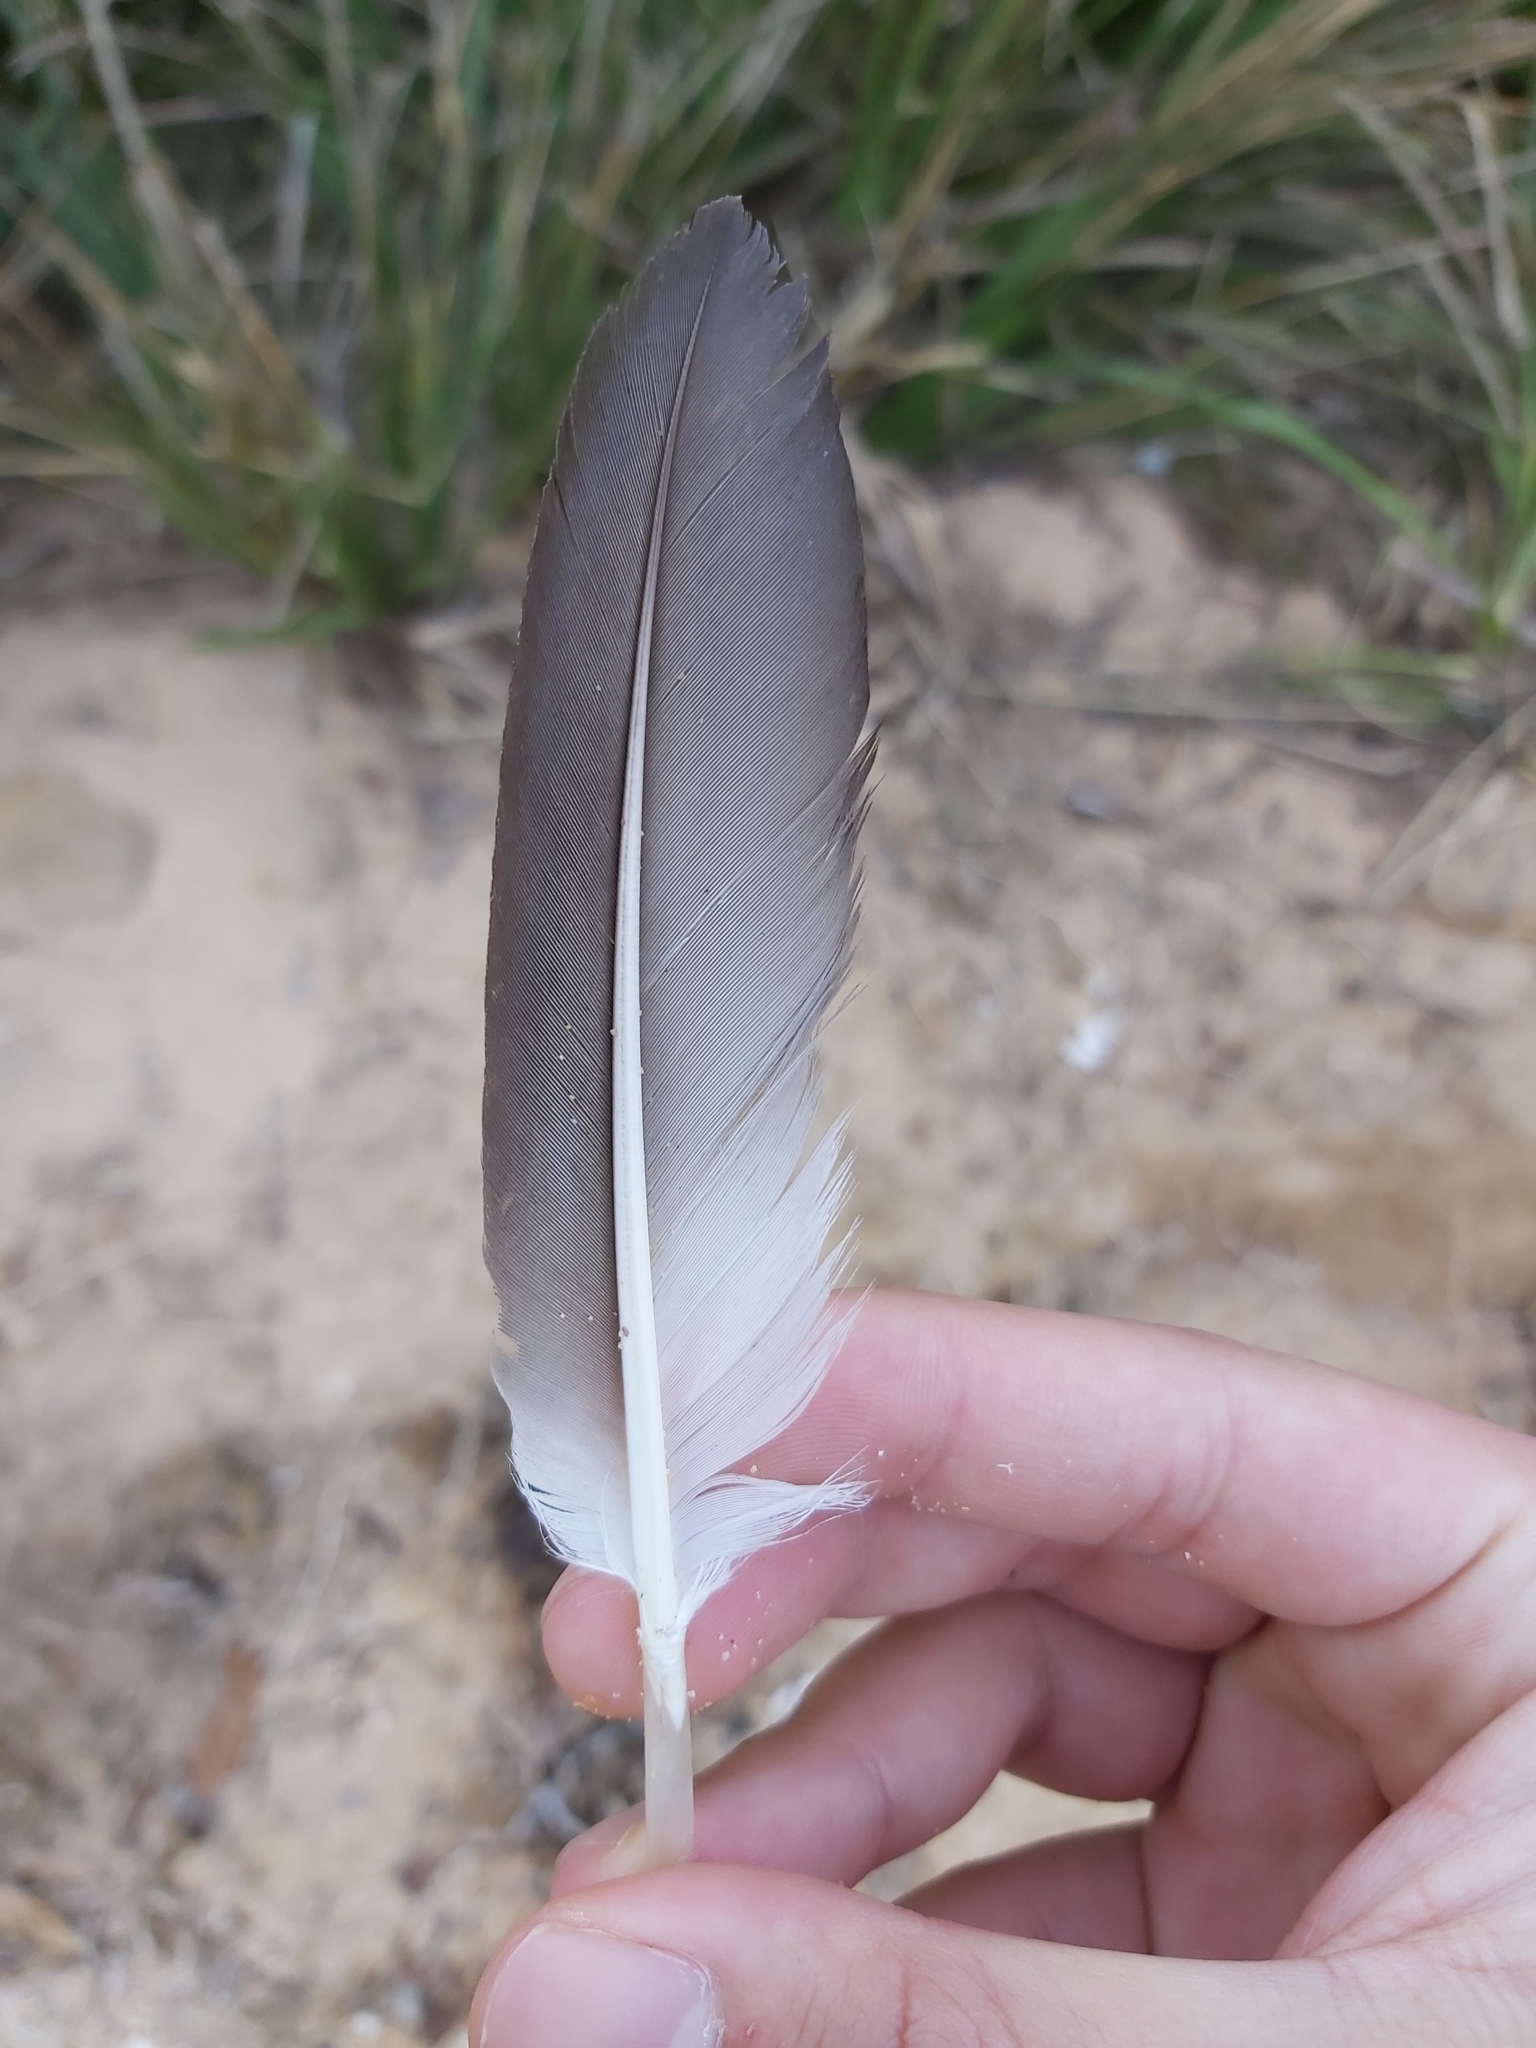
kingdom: Animalia
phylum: Chordata
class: Aves
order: Suliformes
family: Sulidae
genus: Morus
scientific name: Morus serrator
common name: Australasian gannet
